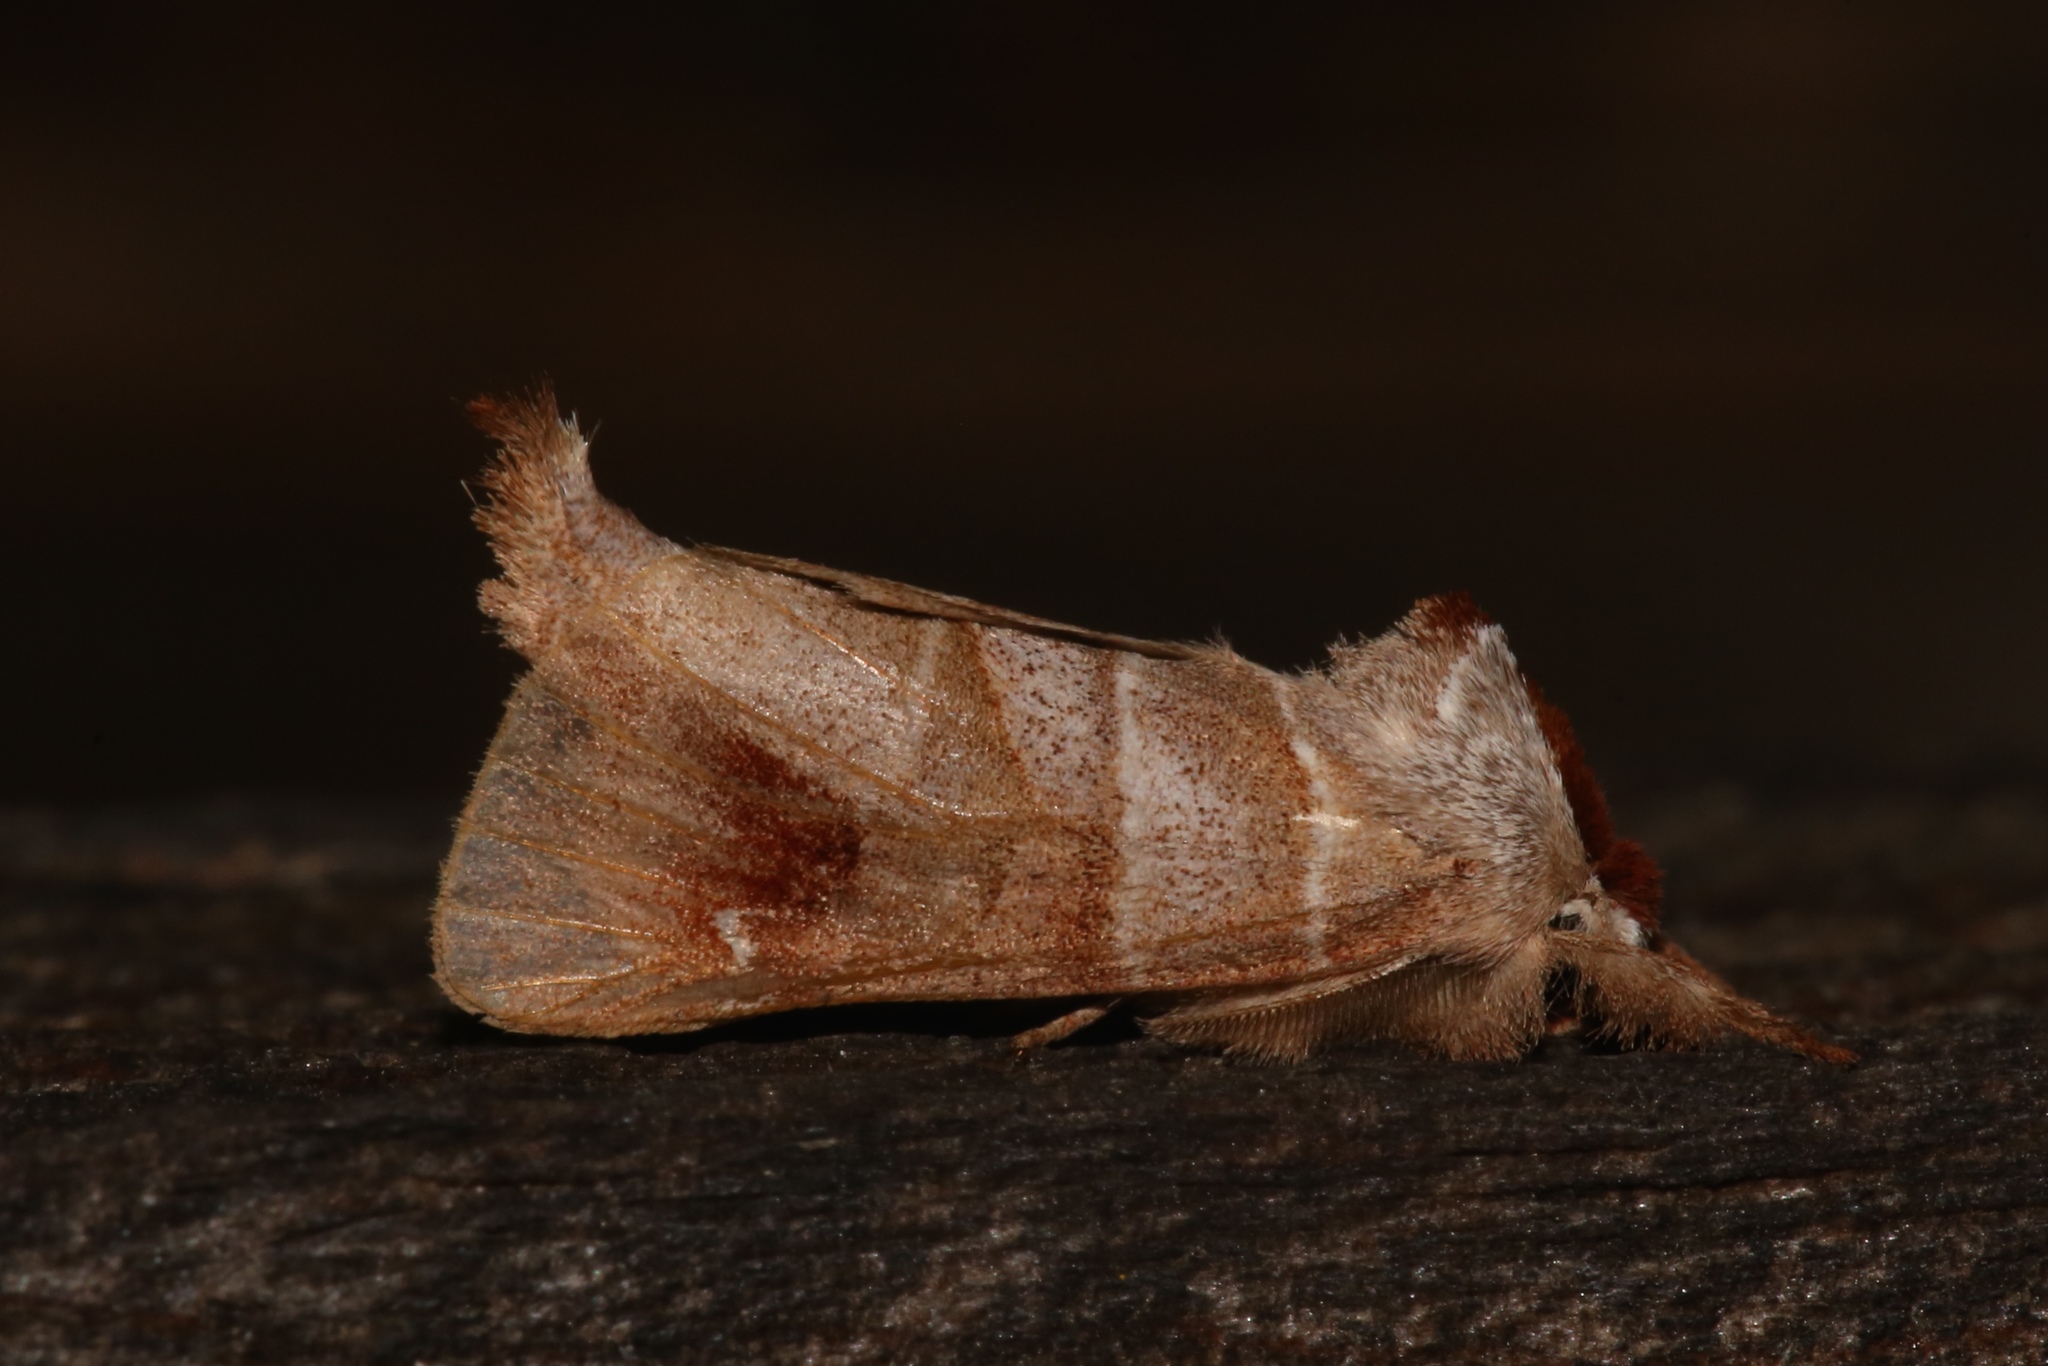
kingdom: Animalia
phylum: Arthropoda
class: Insecta
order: Lepidoptera
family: Notodontidae
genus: Clostera
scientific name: Clostera albosigma
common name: Sigmoid prominent
